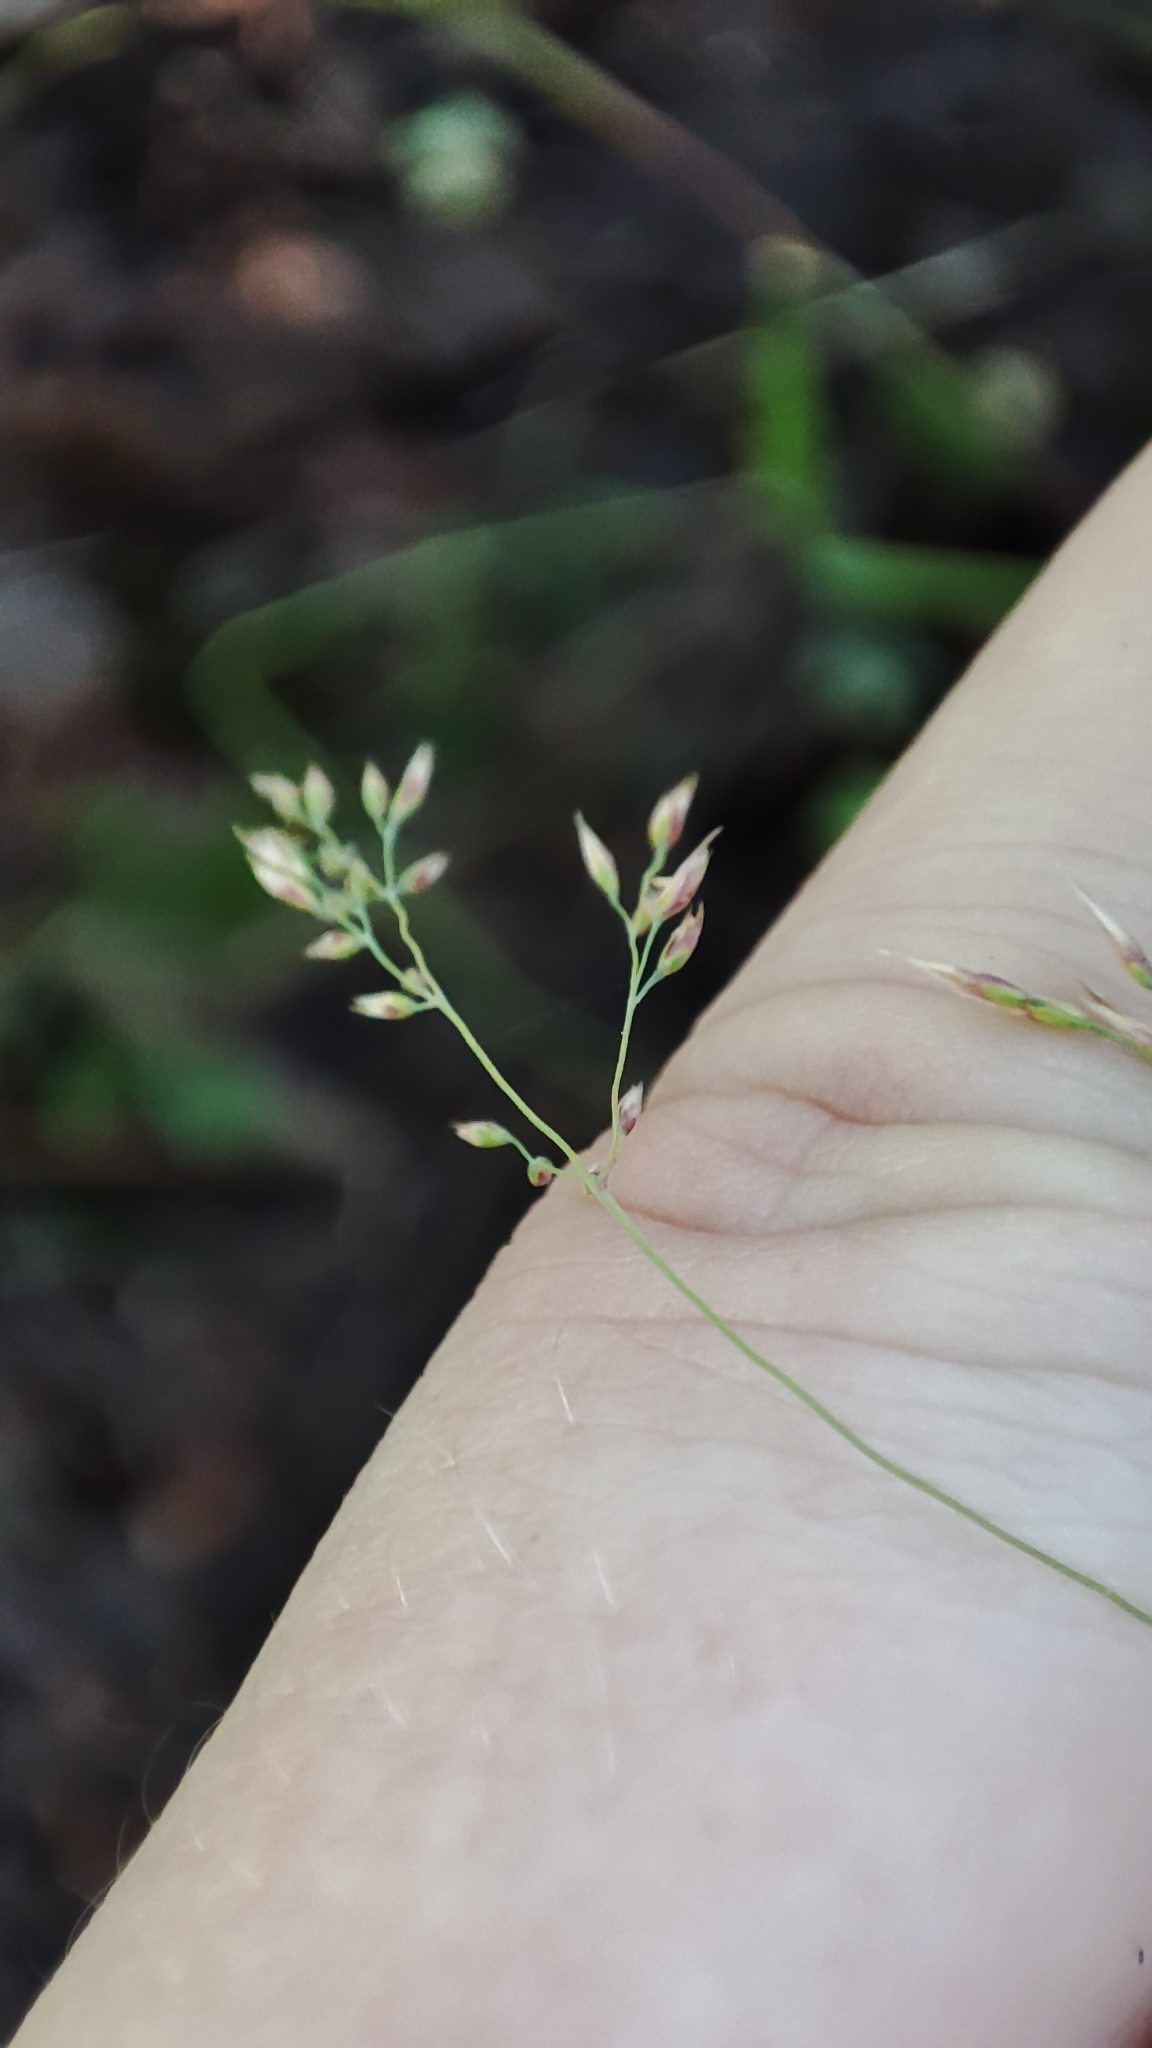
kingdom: Plantae
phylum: Tracheophyta
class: Liliopsida
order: Poales
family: Poaceae
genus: Poa
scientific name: Poa palustris
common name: Swamp meadow-grass
